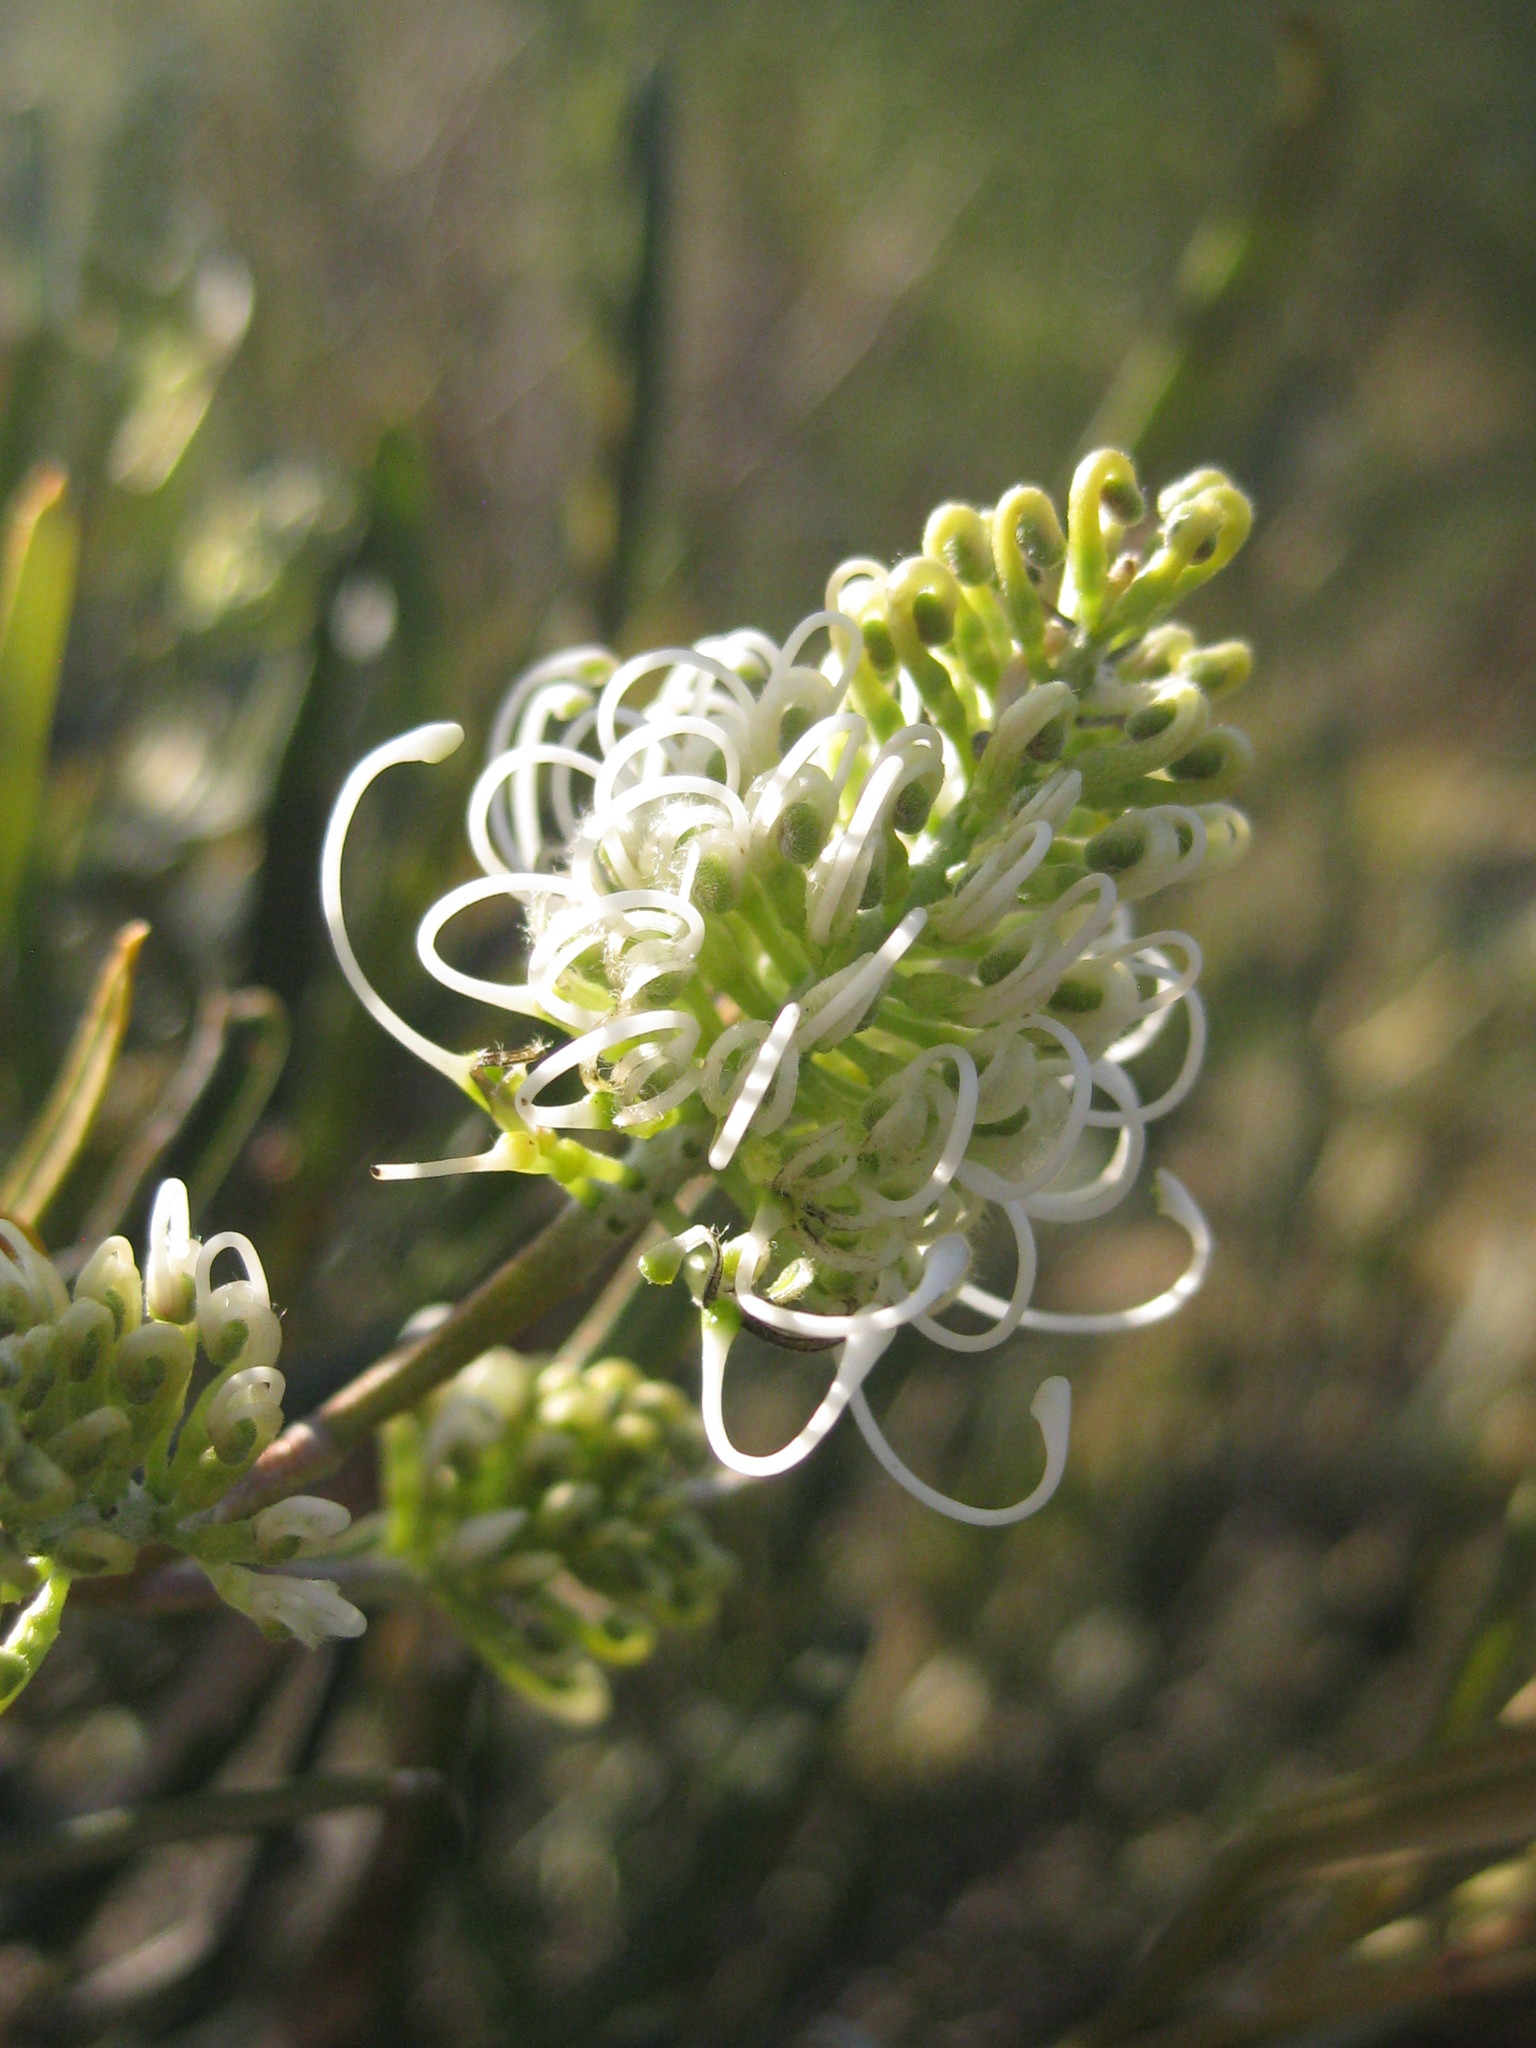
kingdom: Plantae
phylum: Tracheophyta
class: Magnoliopsida
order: Proteales
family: Proteaceae
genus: Grevillea
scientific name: Grevillea commutata
